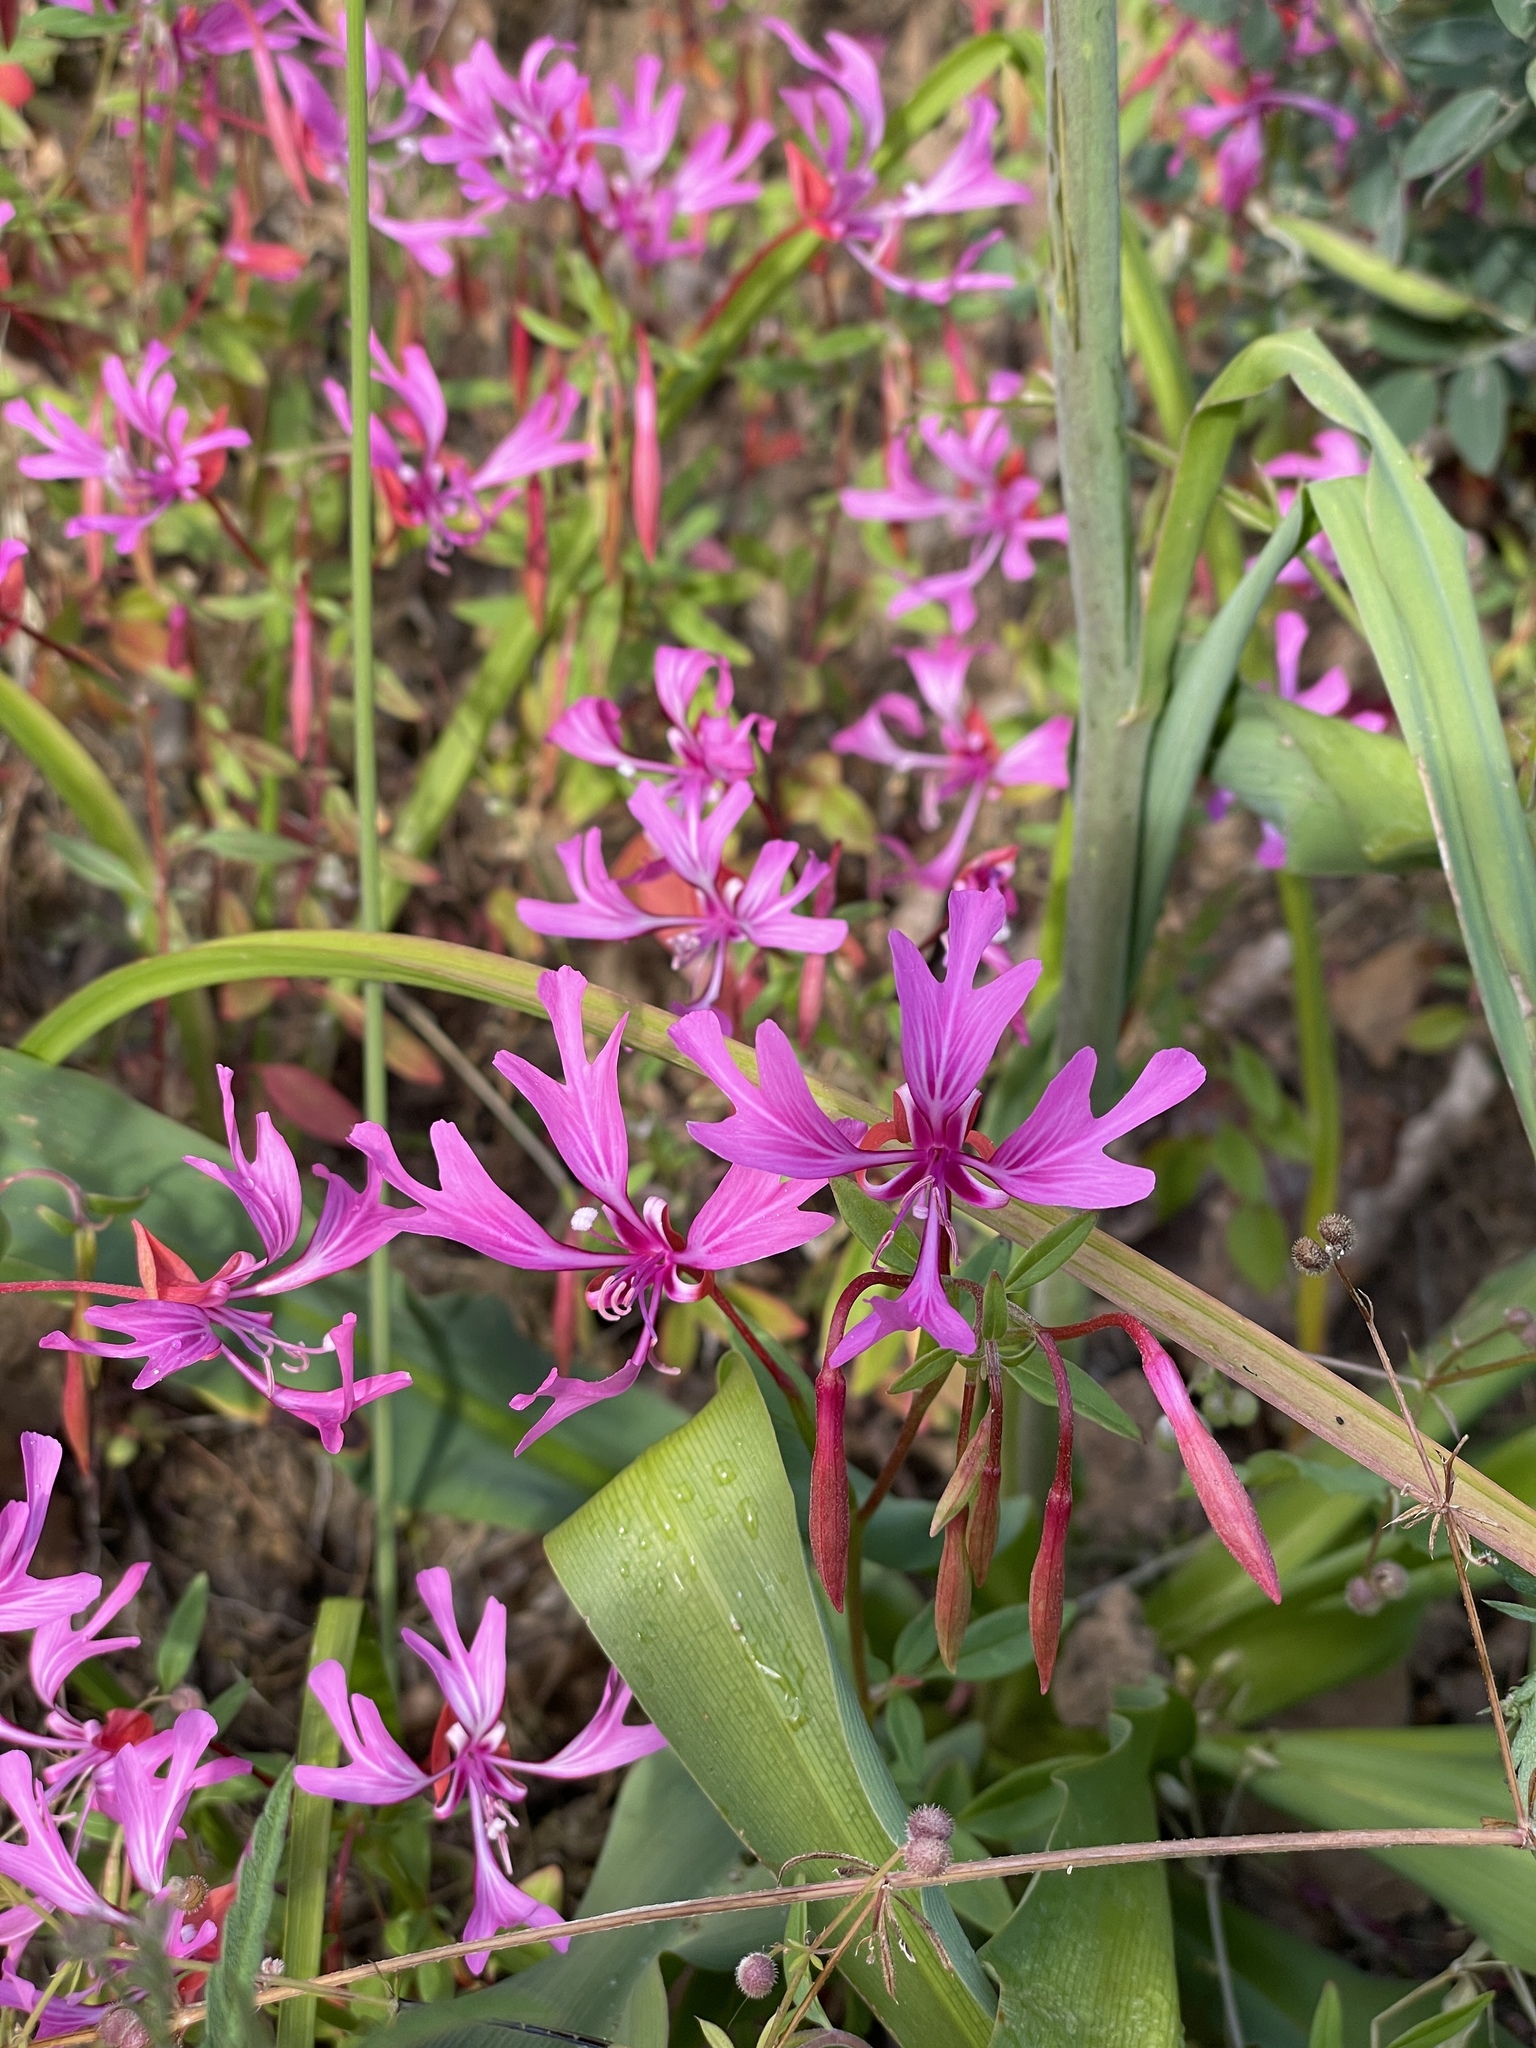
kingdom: Plantae
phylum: Tracheophyta
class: Magnoliopsida
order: Myrtales
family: Onagraceae
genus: Clarkia
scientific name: Clarkia concinna
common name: Red-ribbons
